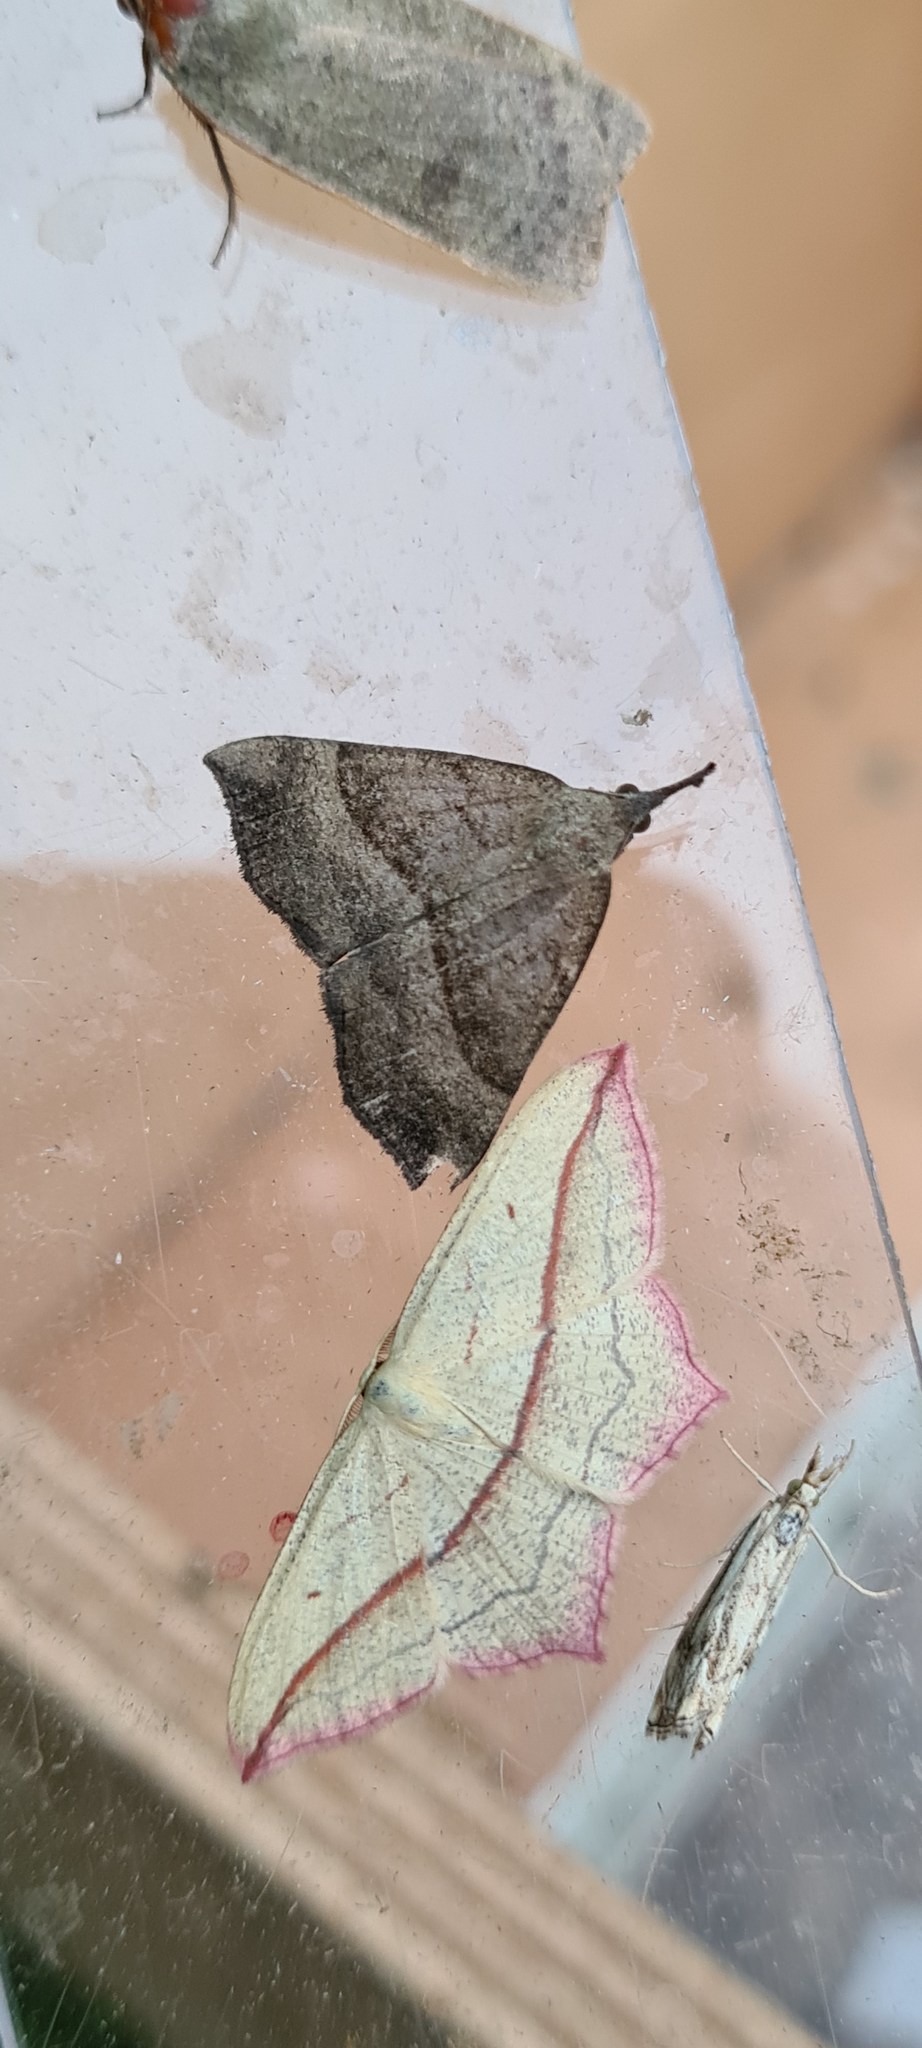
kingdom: Animalia
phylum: Arthropoda
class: Insecta
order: Lepidoptera
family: Erebidae
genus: Hypena
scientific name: Hypena proboscidalis
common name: Snout
